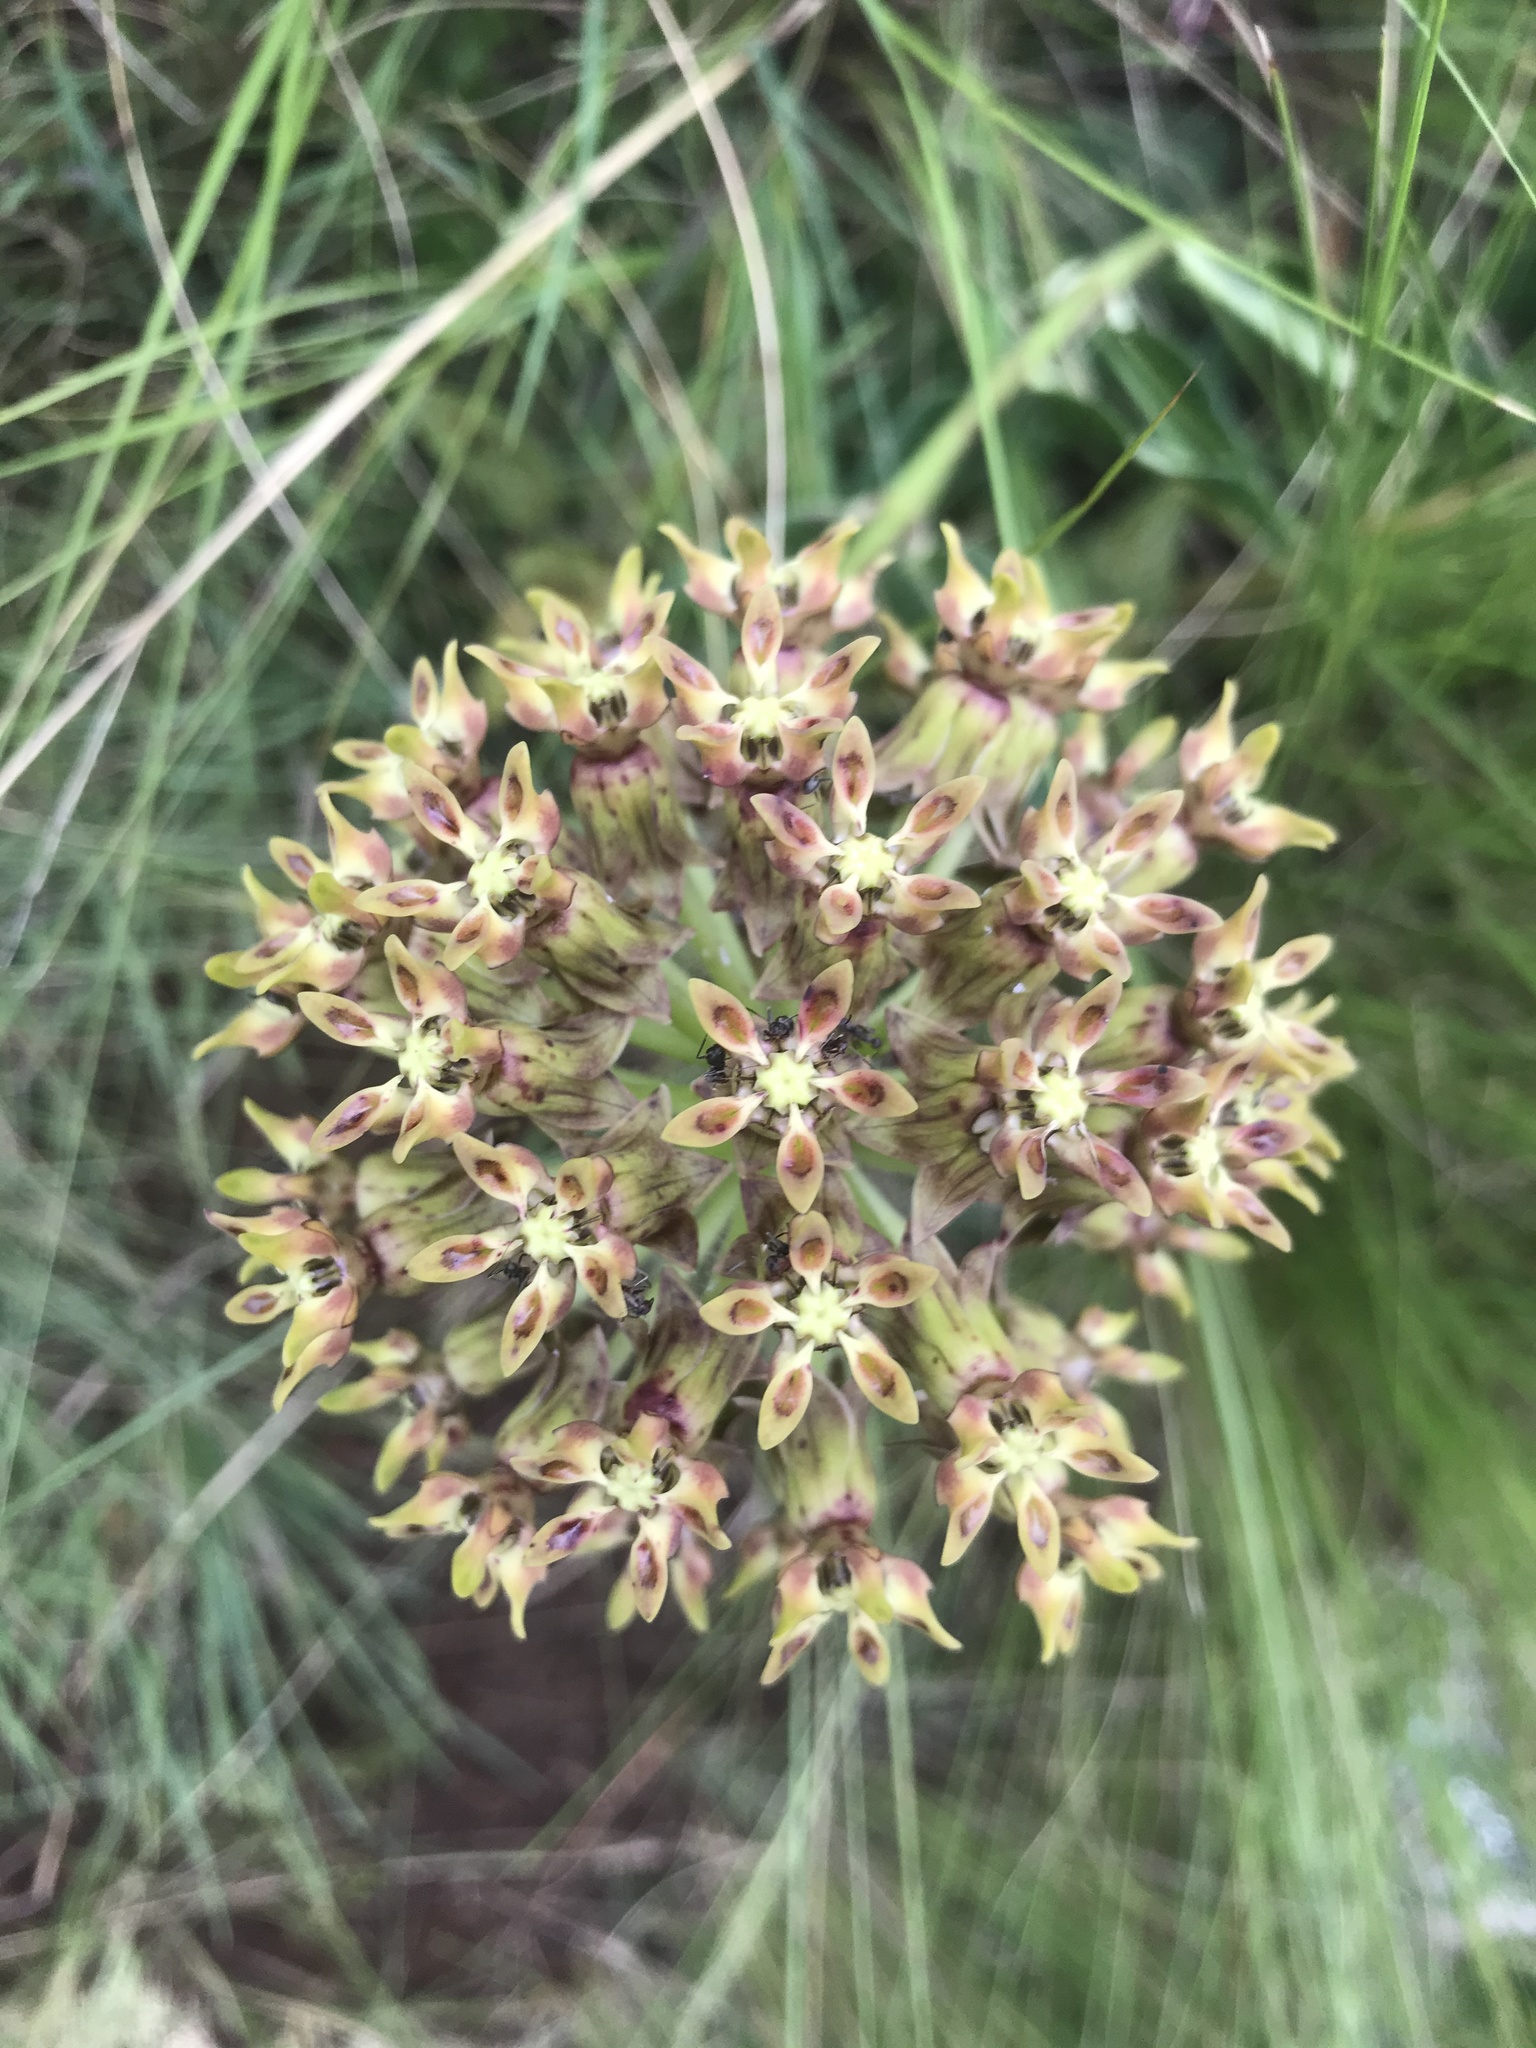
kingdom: Plantae
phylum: Tracheophyta
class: Magnoliopsida
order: Gentianales
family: Apocynaceae
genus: Asclepias
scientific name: Asclepias macropus
